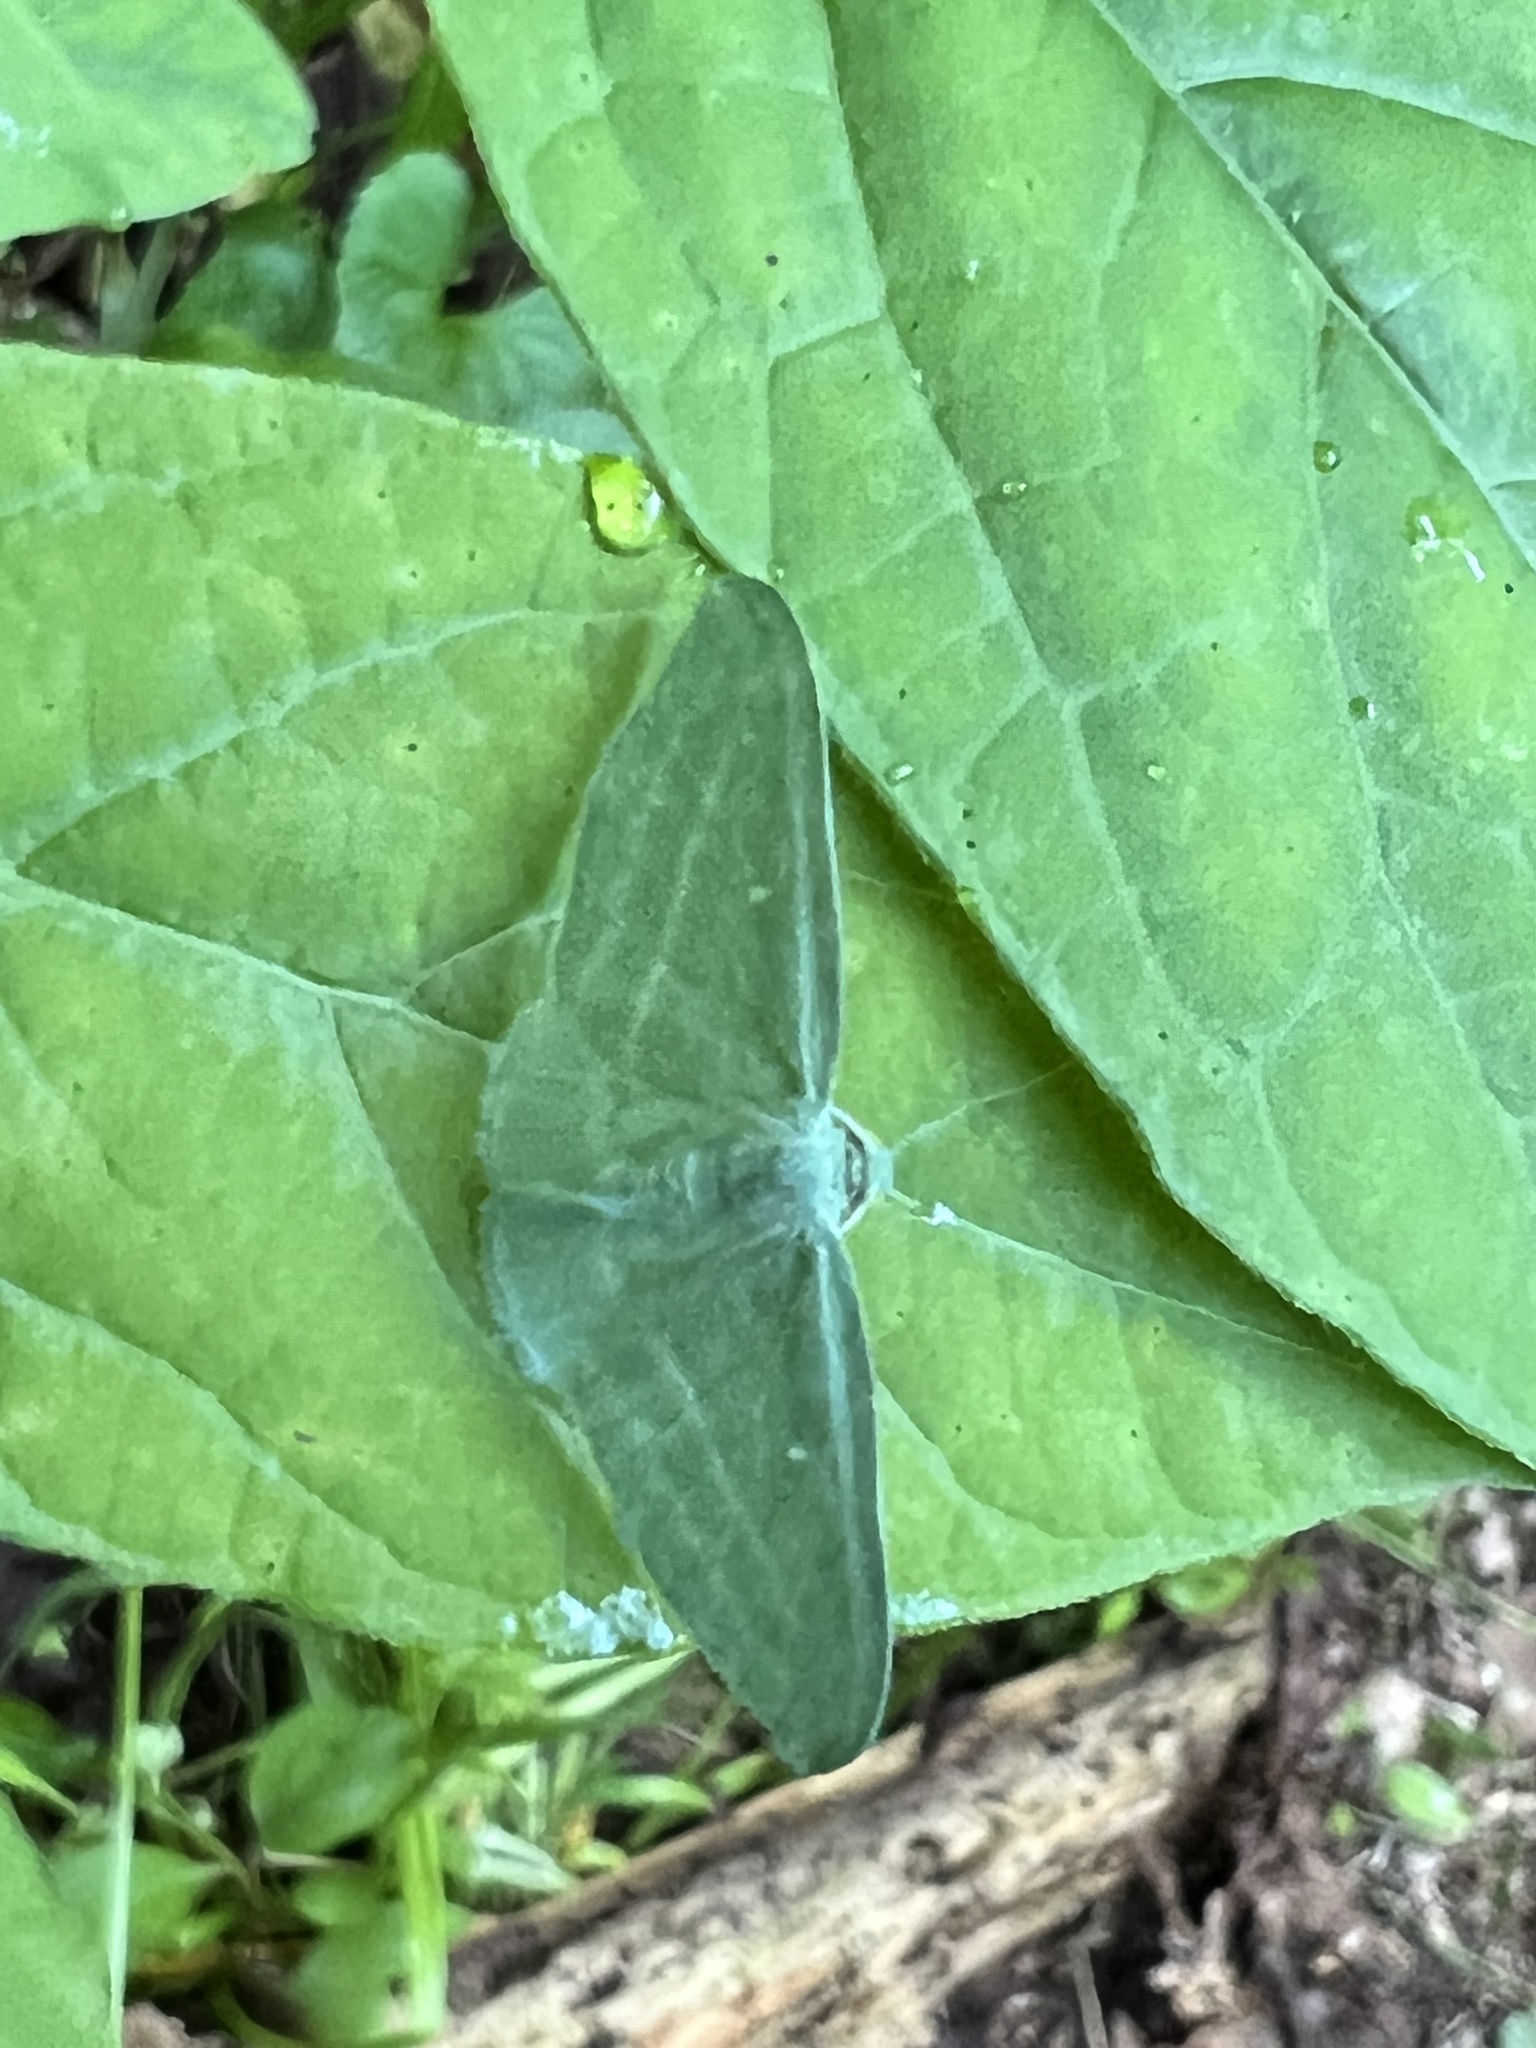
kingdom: Animalia
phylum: Arthropoda
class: Insecta
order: Lepidoptera
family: Geometridae
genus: Dyspteris
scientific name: Dyspteris abortivaria
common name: Bad-wing
